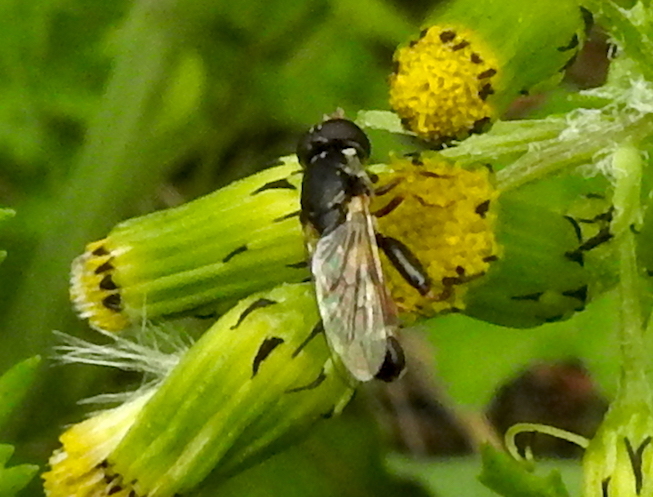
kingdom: Animalia
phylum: Arthropoda
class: Insecta
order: Diptera
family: Syrphidae
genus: Syritta
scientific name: Syritta pipiens
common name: Hover fly
